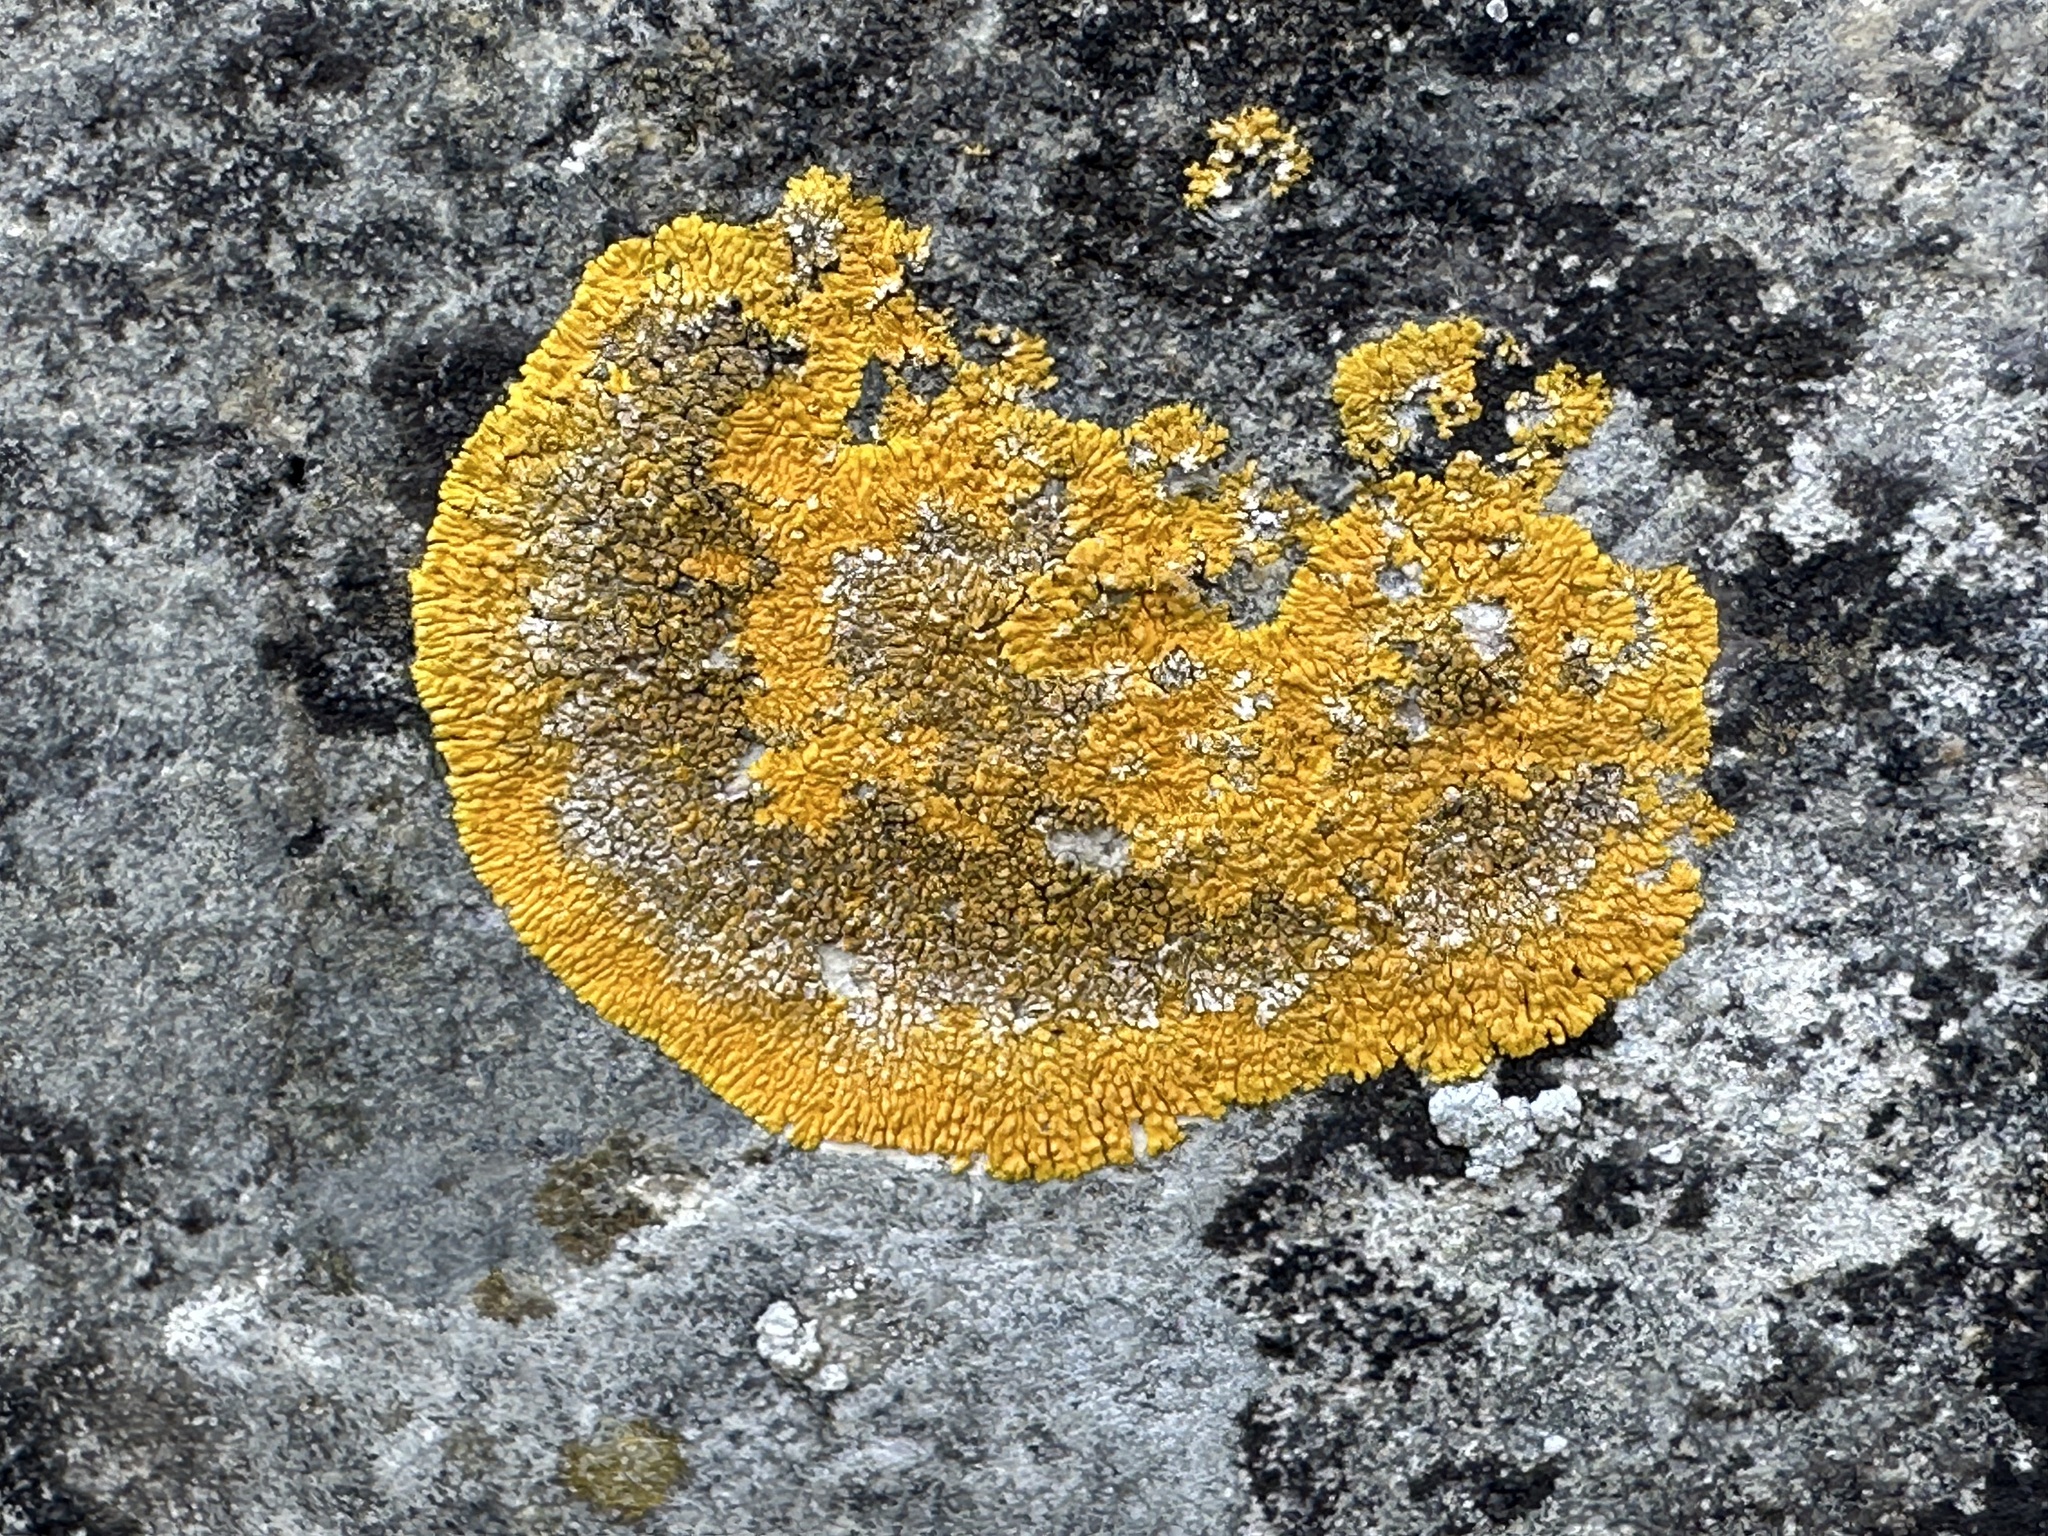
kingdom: Fungi
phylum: Ascomycota
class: Lecanoromycetes
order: Teloschistales
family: Teloschistaceae
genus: Variospora
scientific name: Variospora flavescens
